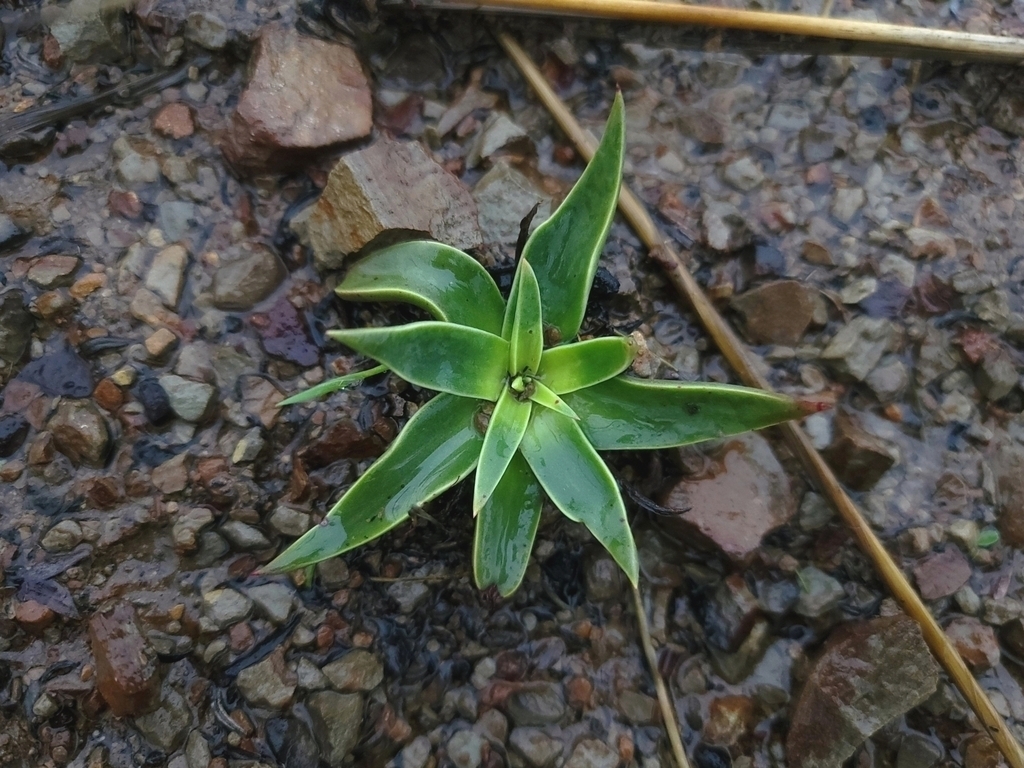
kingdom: Plantae
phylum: Tracheophyta
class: Magnoliopsida
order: Saxifragales
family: Crassulaceae
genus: Dudleya
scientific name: Dudleya lanceolata
